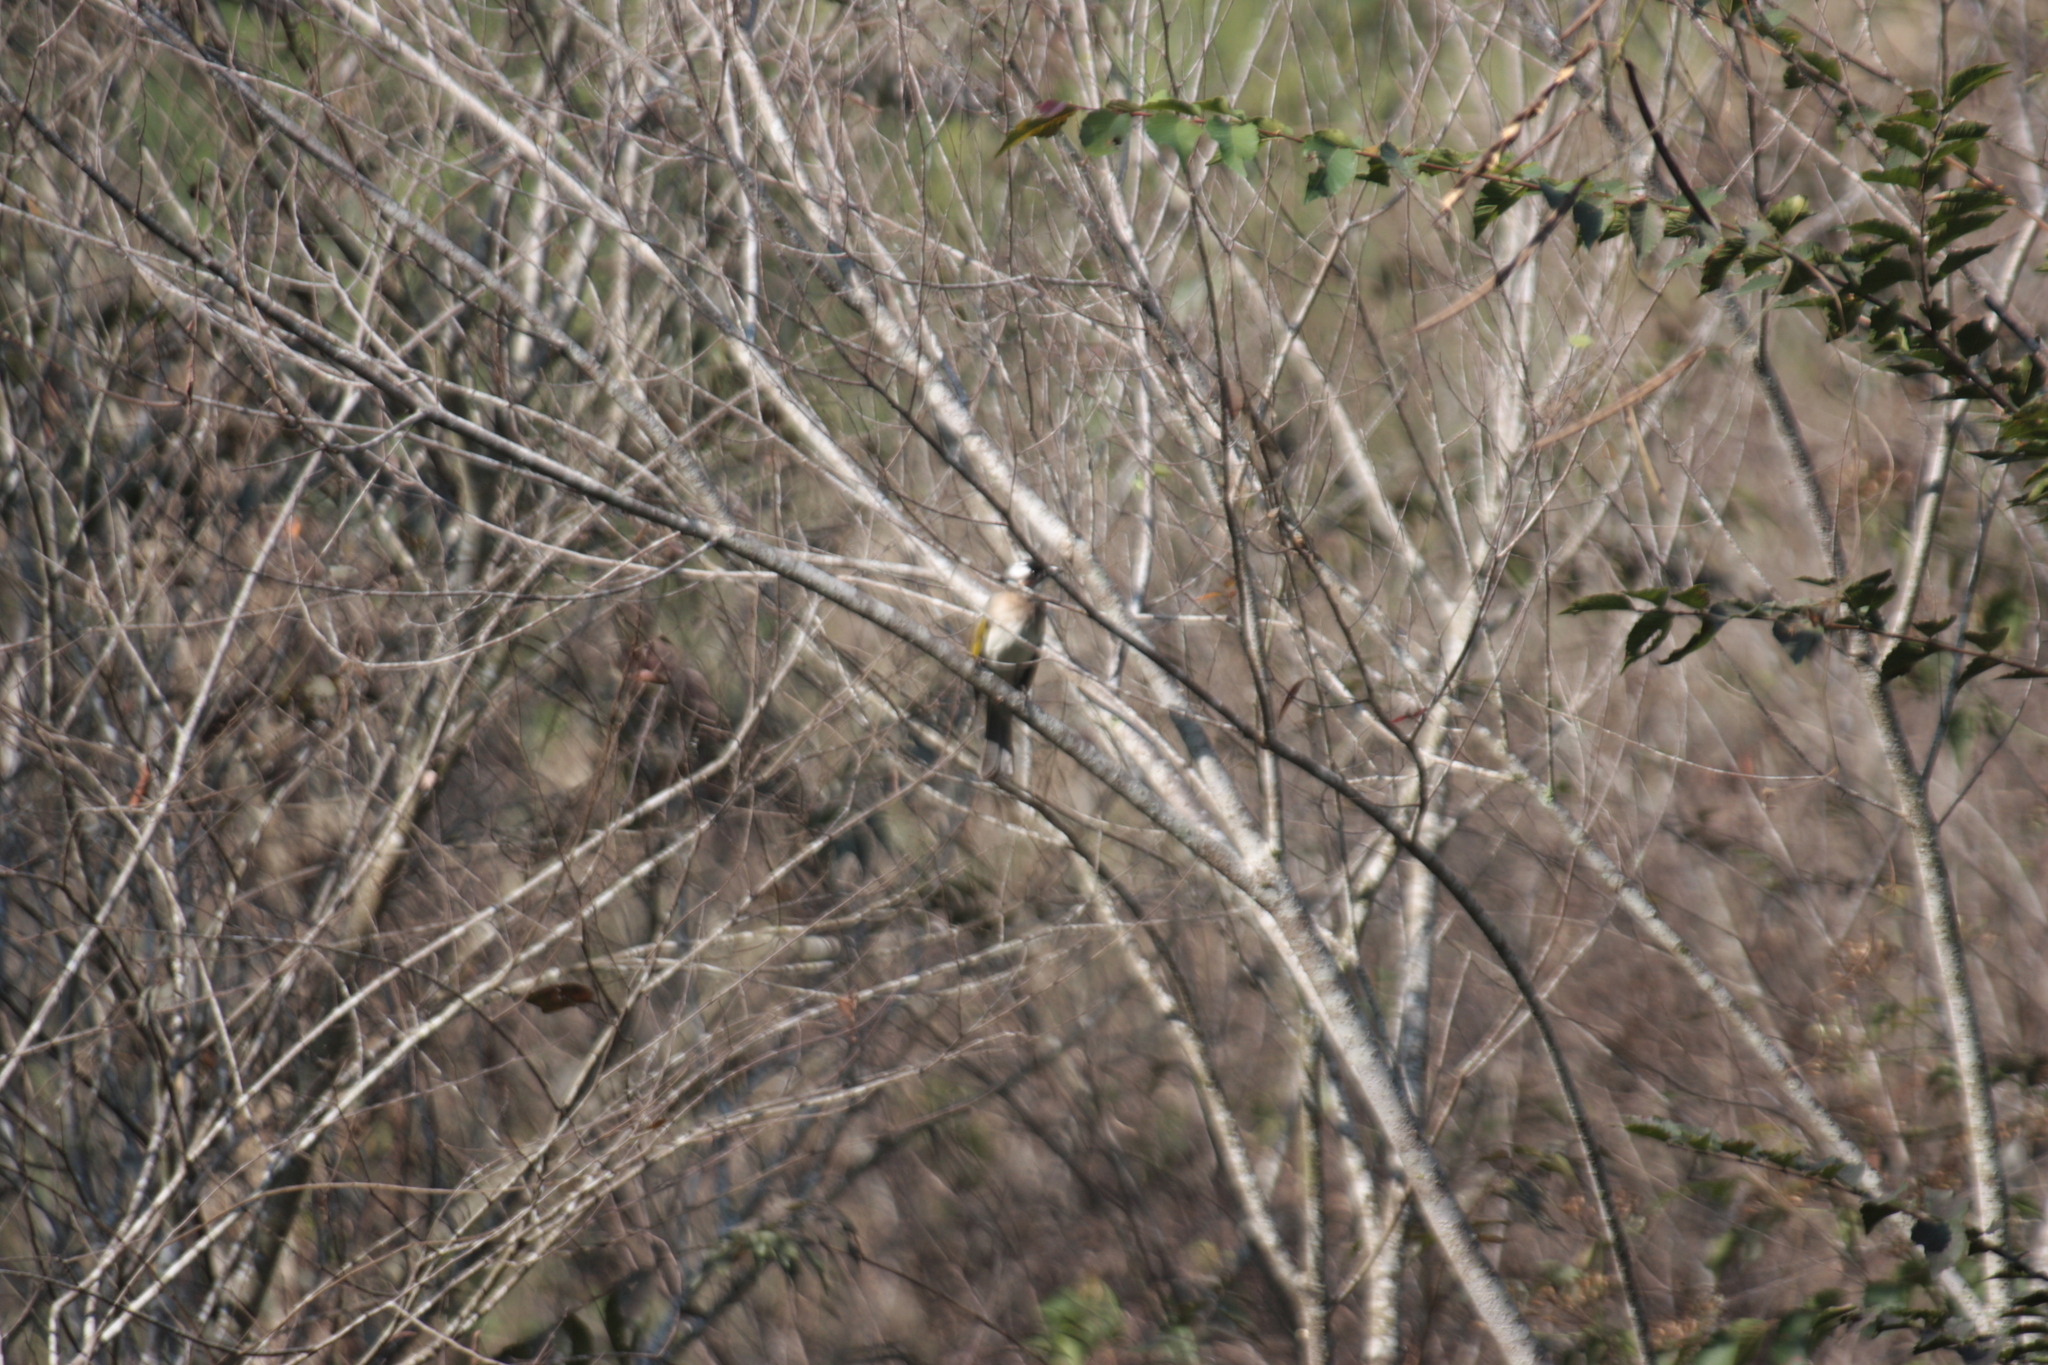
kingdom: Animalia
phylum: Chordata
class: Aves
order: Passeriformes
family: Pycnonotidae
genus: Pycnonotus
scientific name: Pycnonotus sinensis
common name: Light-vented bulbul
